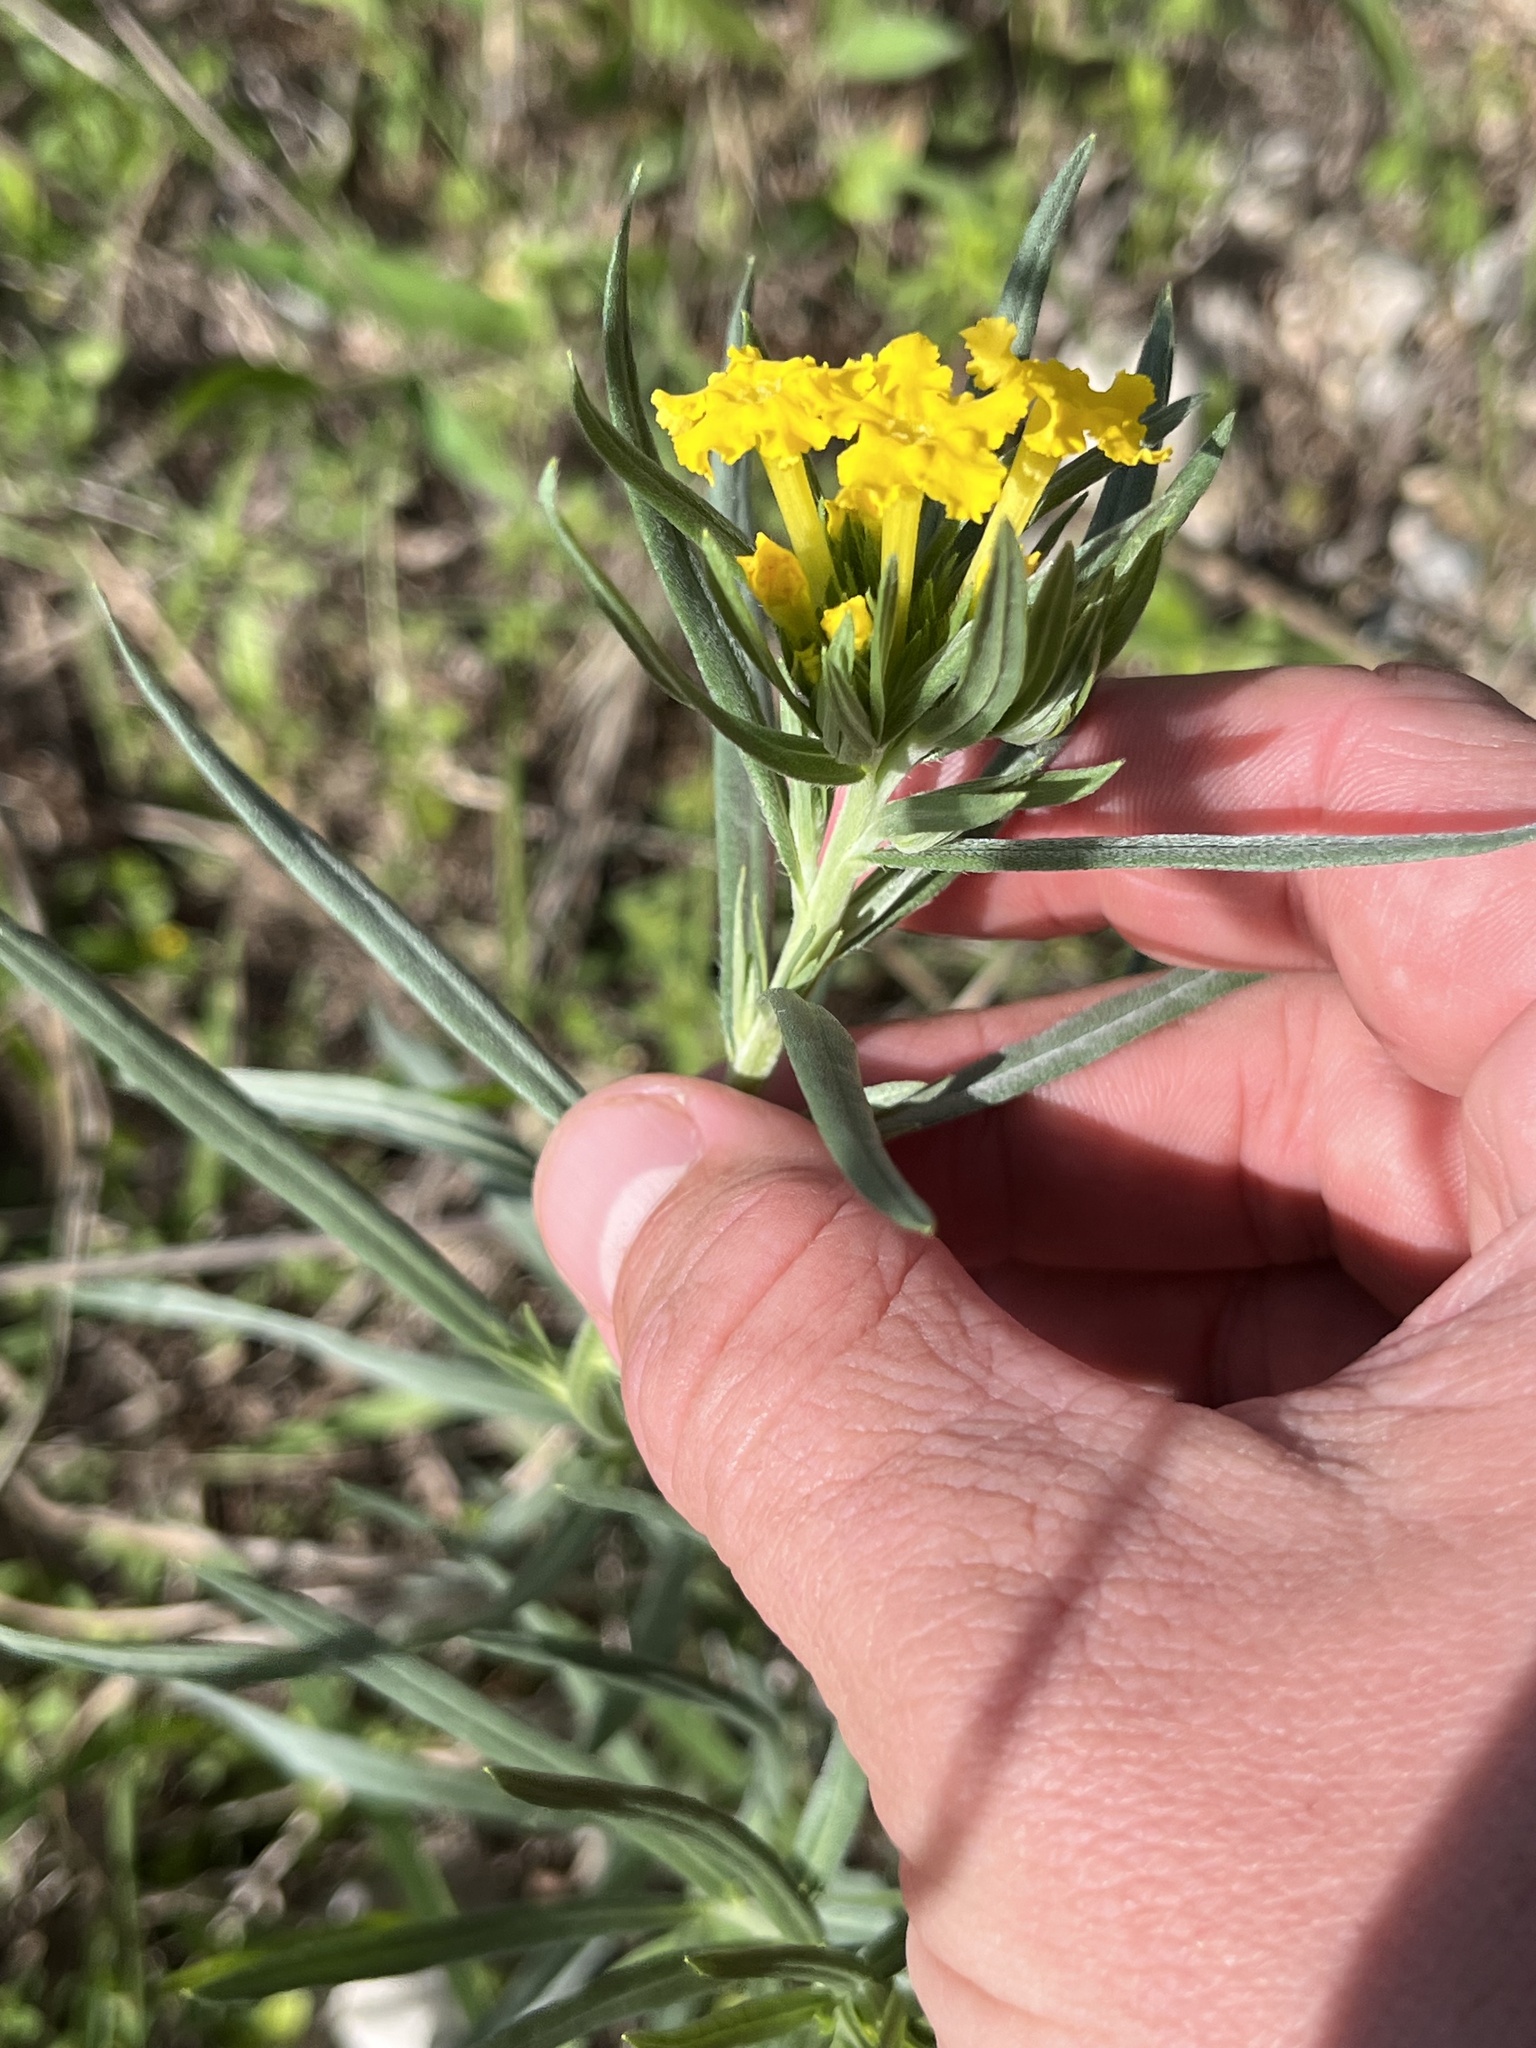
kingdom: Plantae
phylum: Tracheophyta
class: Magnoliopsida
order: Boraginales
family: Boraginaceae
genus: Lithospermum
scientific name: Lithospermum incisum
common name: Fringed gromwell
